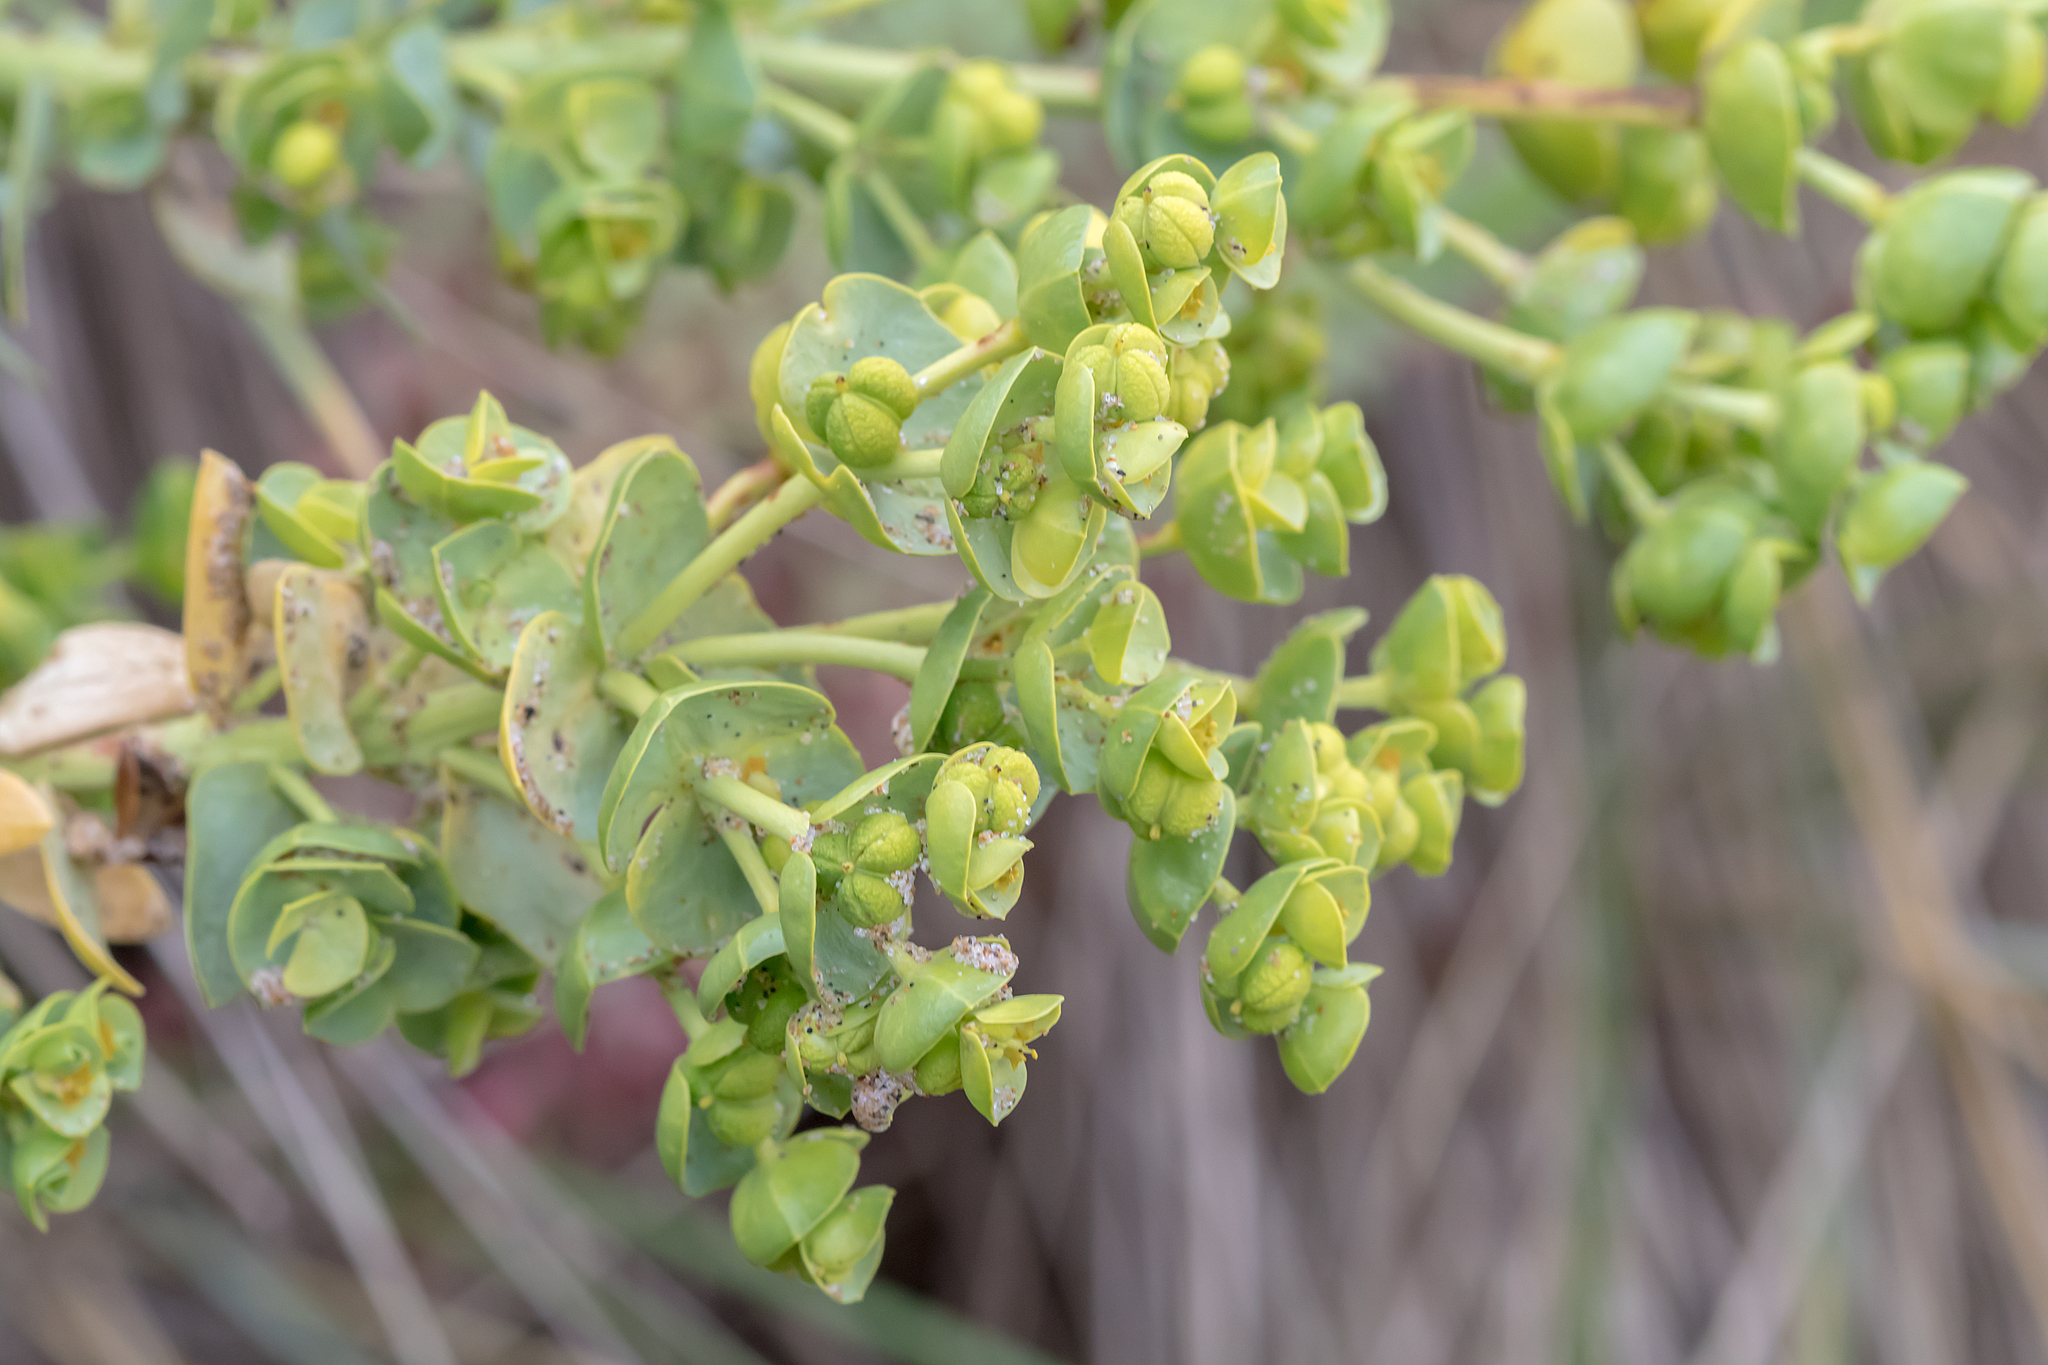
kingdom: Plantae
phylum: Tracheophyta
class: Magnoliopsida
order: Malpighiales
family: Euphorbiaceae
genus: Euphorbia
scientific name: Euphorbia paralias
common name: Sea spurge
